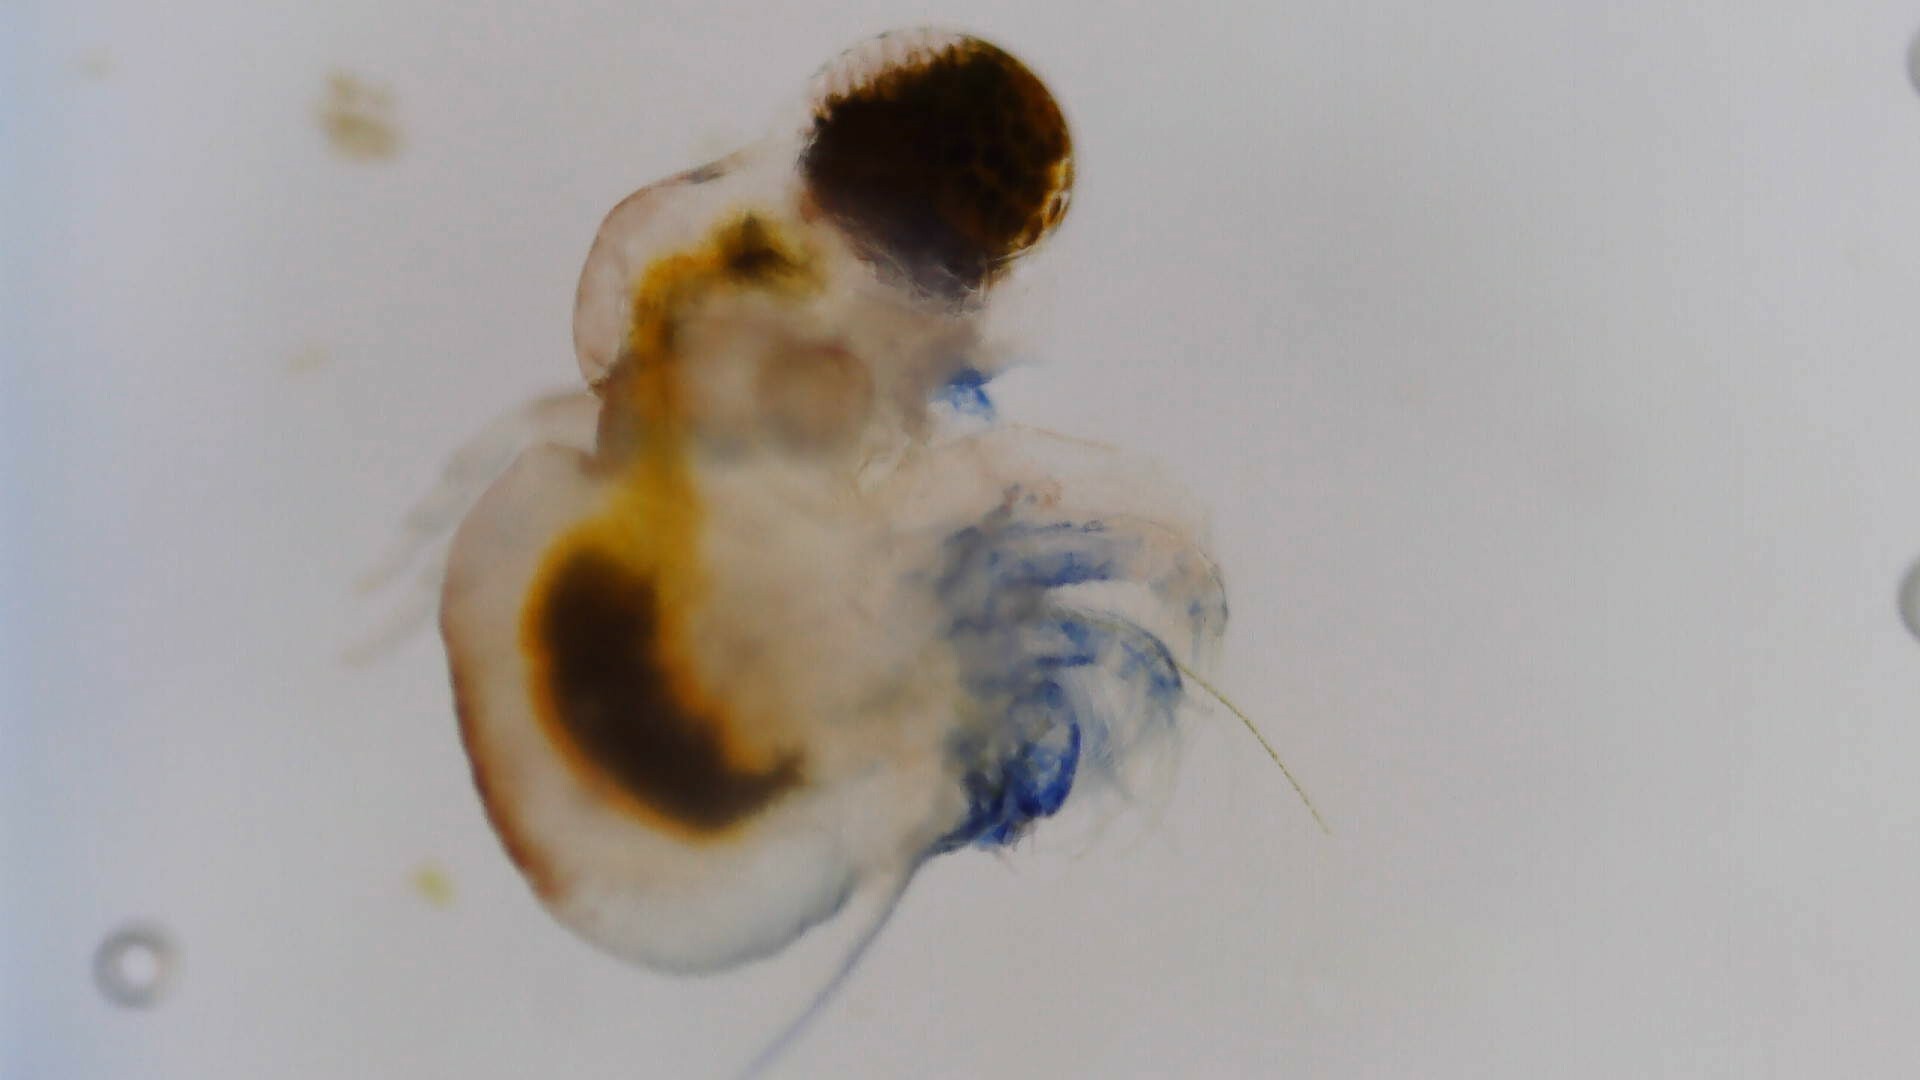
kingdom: Animalia
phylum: Arthropoda
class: Branchiopoda
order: Diplostraca
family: Polyphemidae
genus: Polyphemus
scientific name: Polyphemus pediculus
